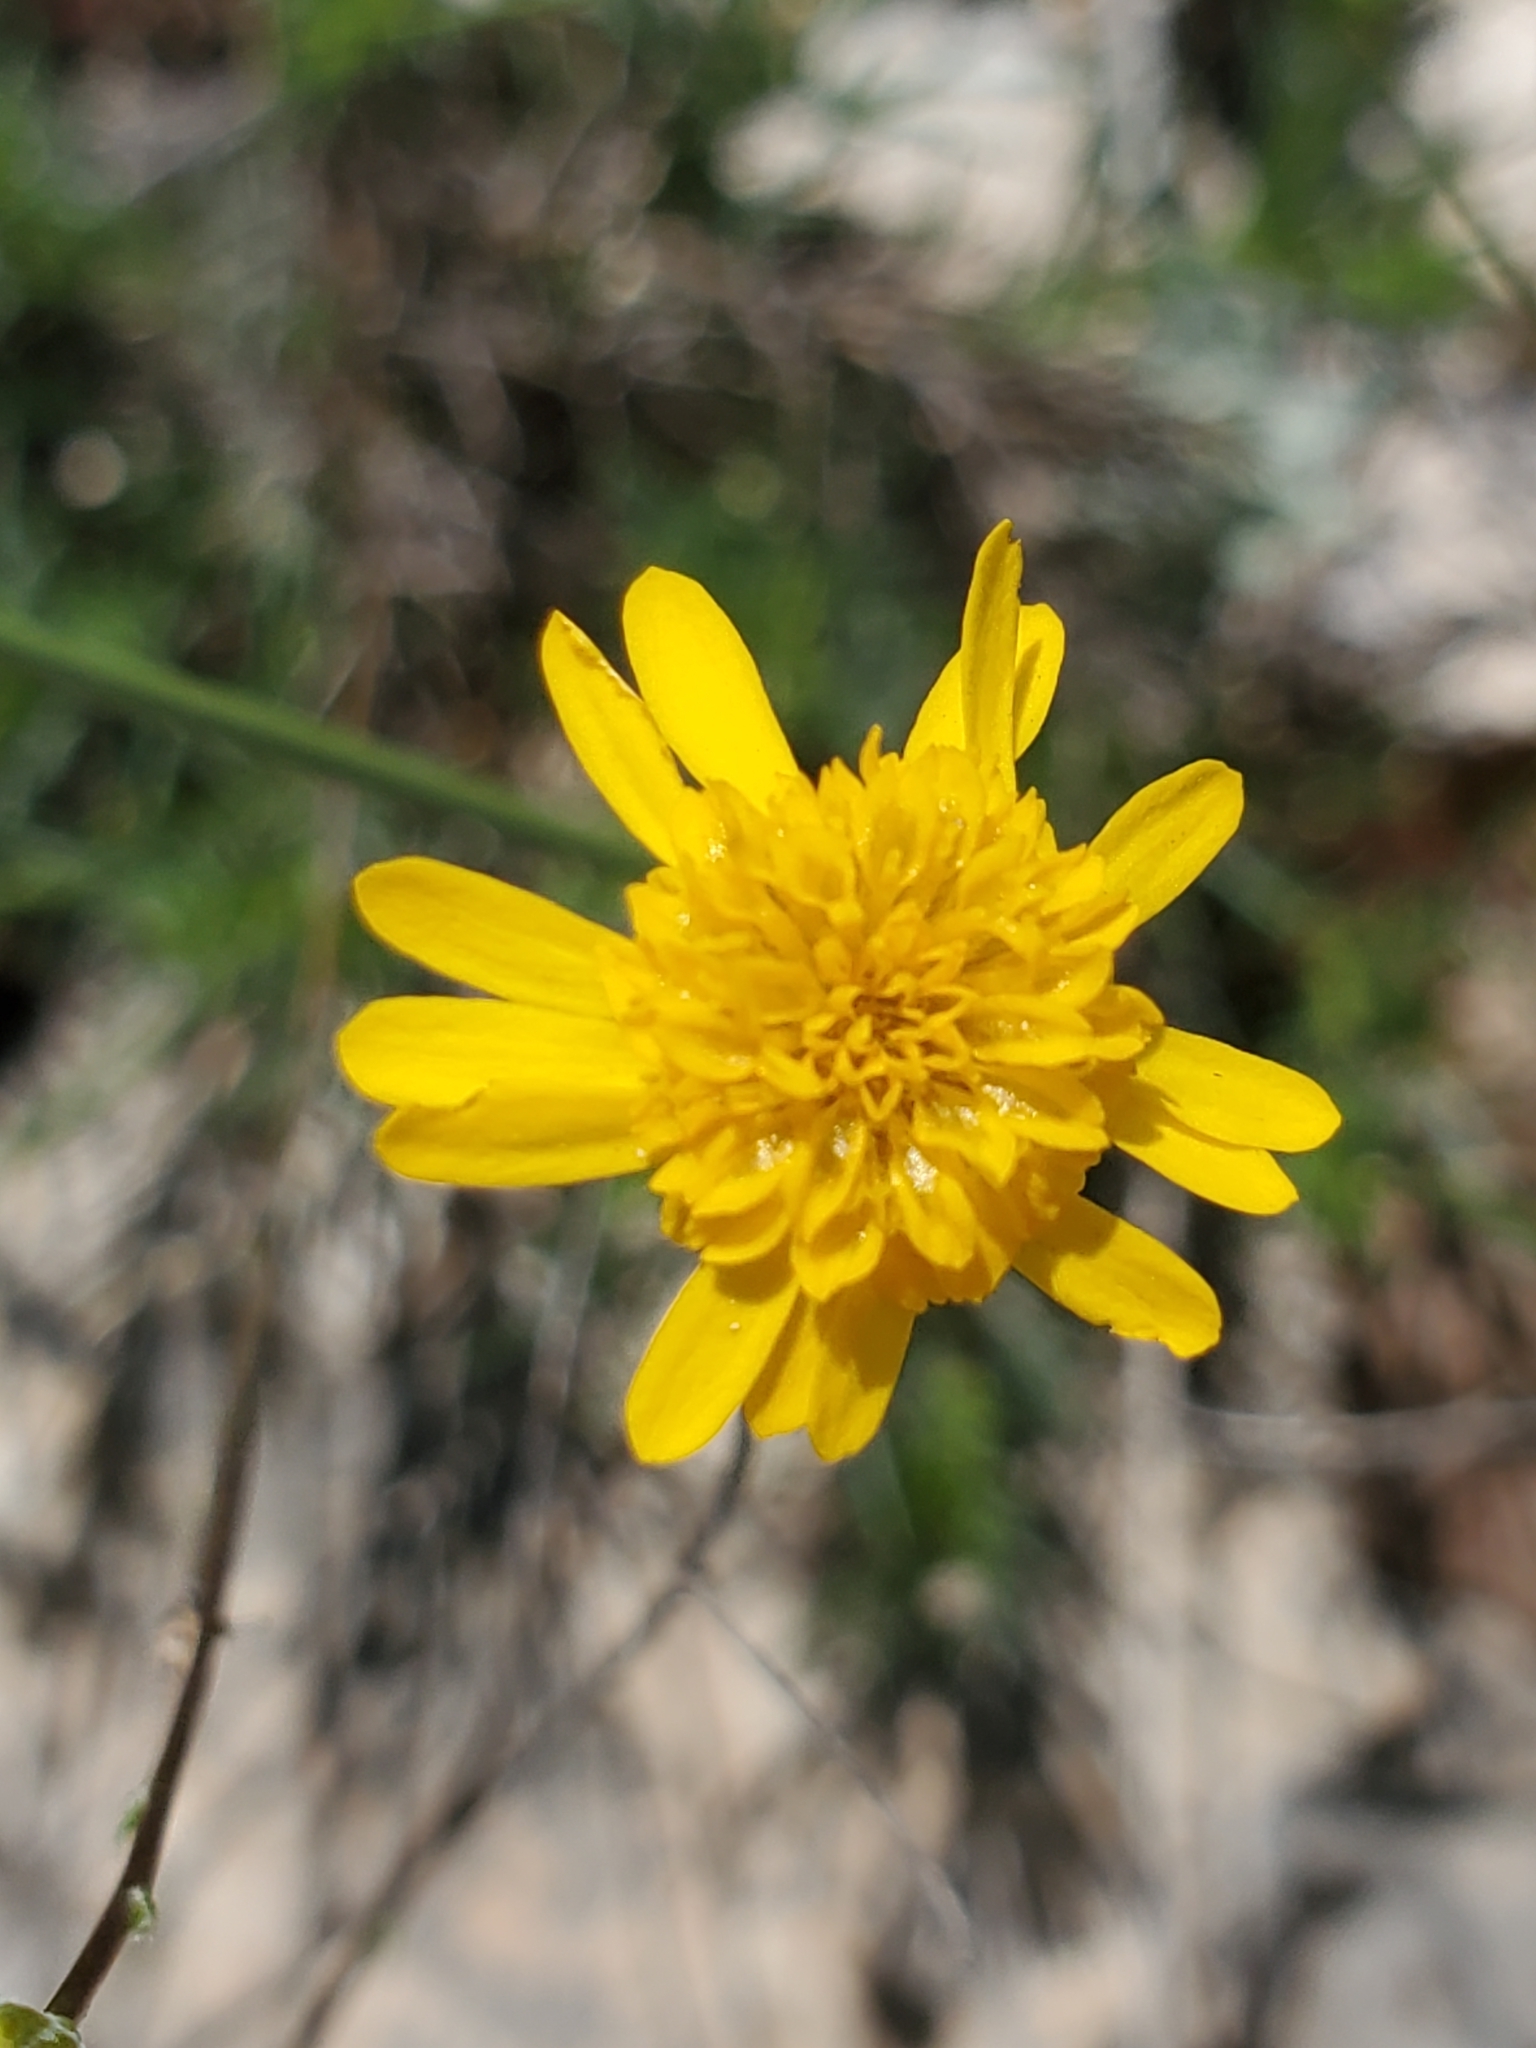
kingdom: Plantae
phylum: Tracheophyta
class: Magnoliopsida
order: Asterales
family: Asteraceae
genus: Thymophylla
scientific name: Thymophylla pentachaeta
